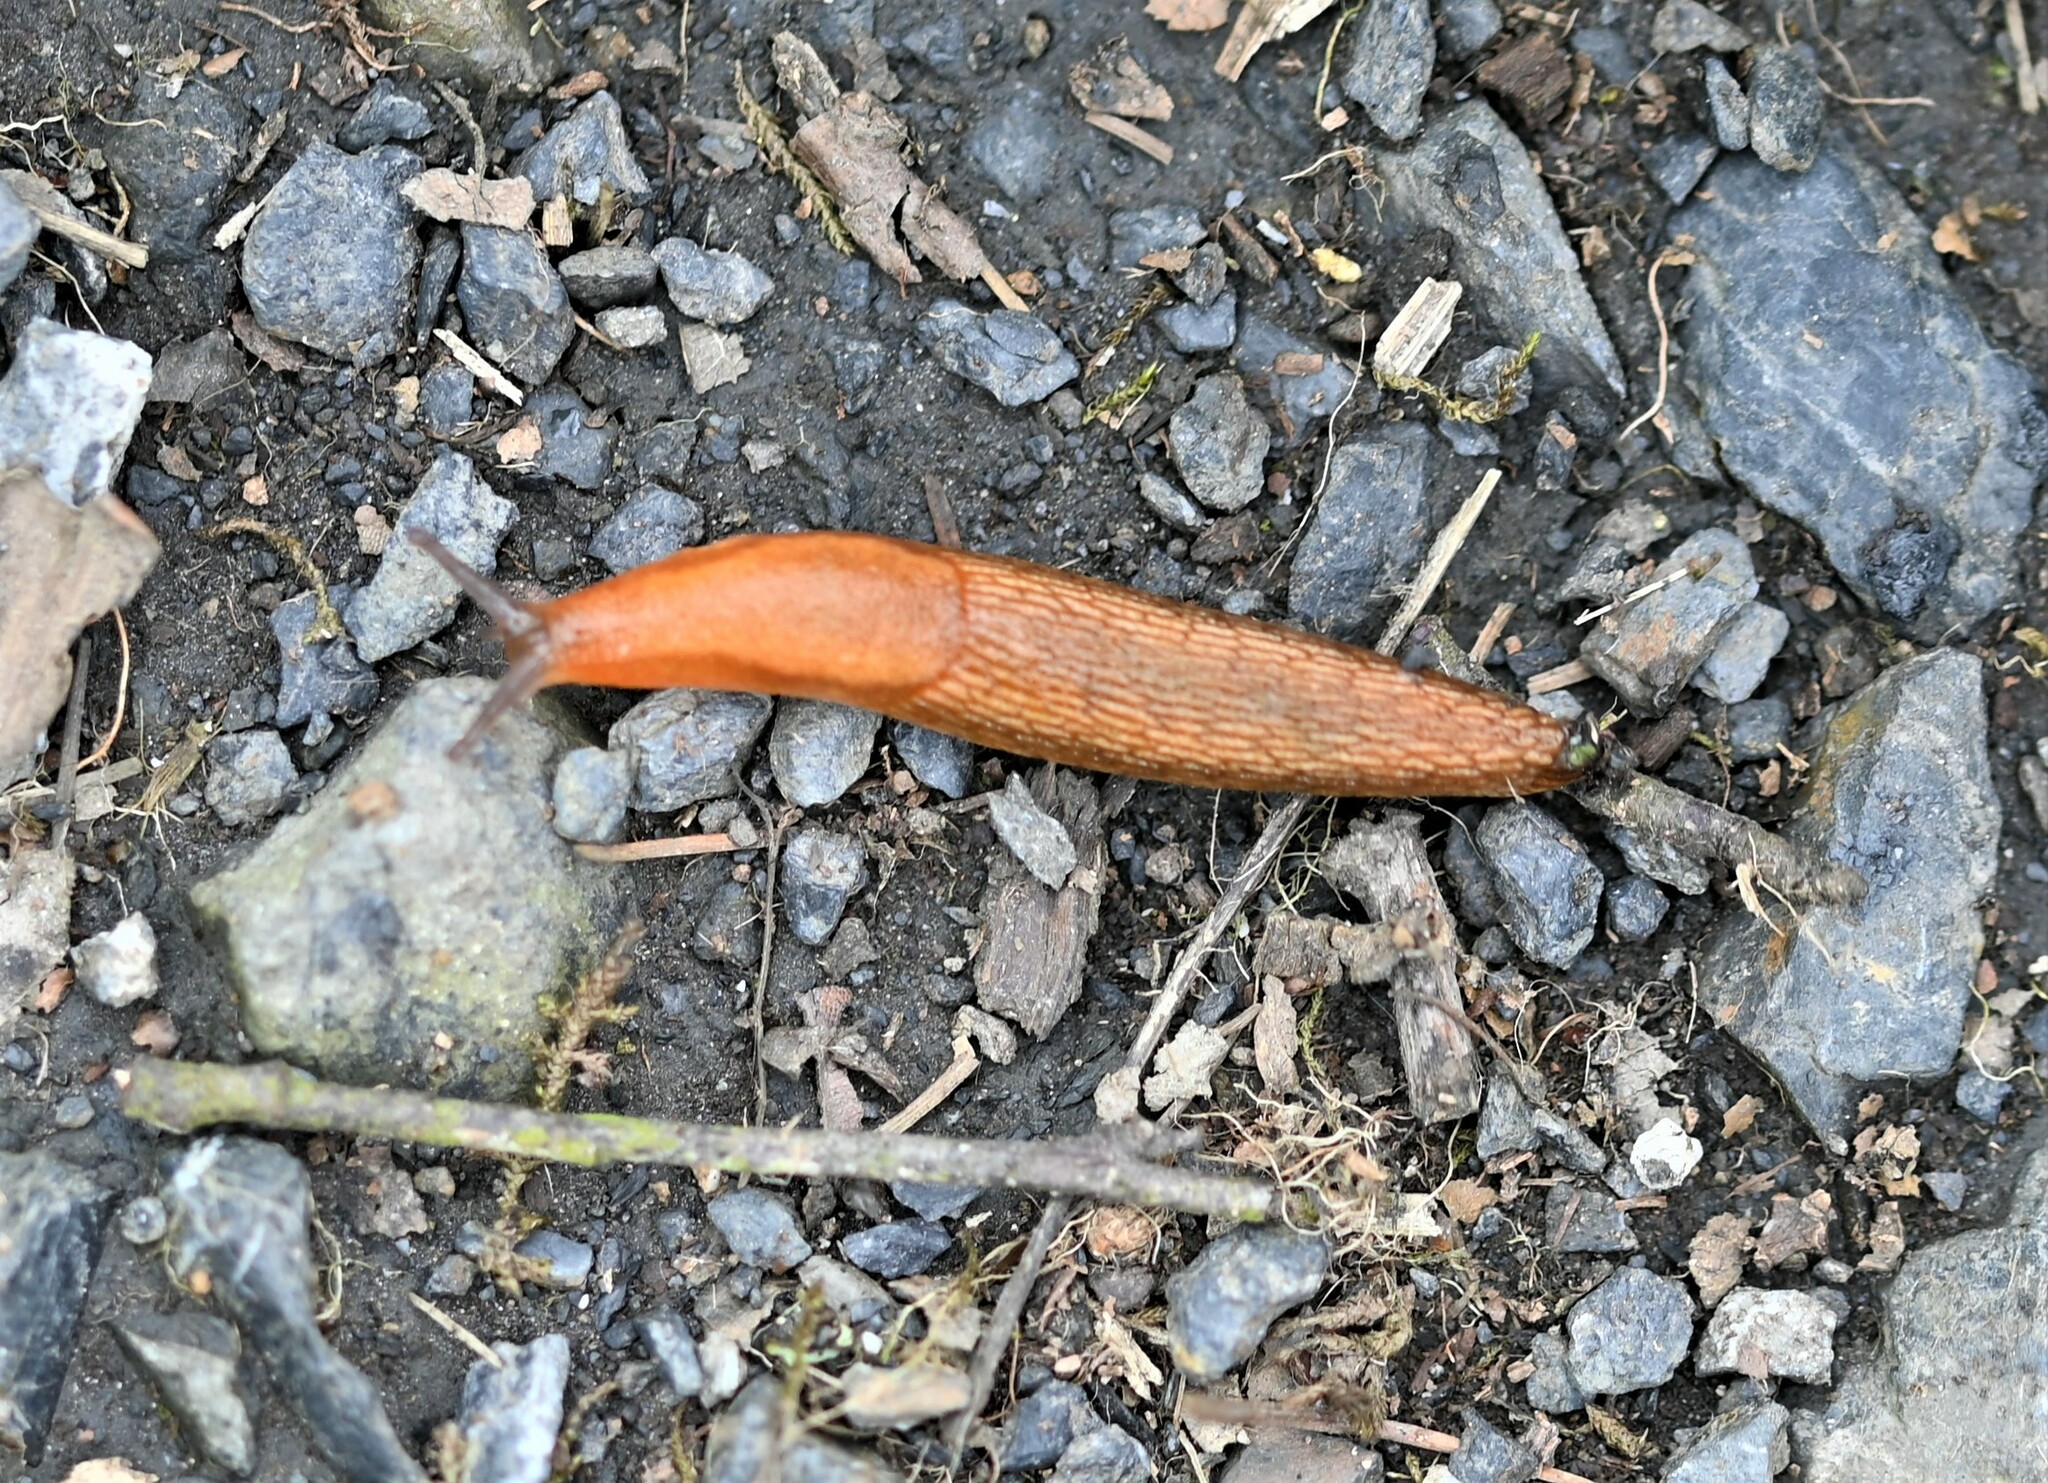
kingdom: Animalia
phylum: Mollusca
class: Gastropoda
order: Stylommatophora
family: Arionidae
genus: Arion
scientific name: Arion subfuscus
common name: Dusky arion
